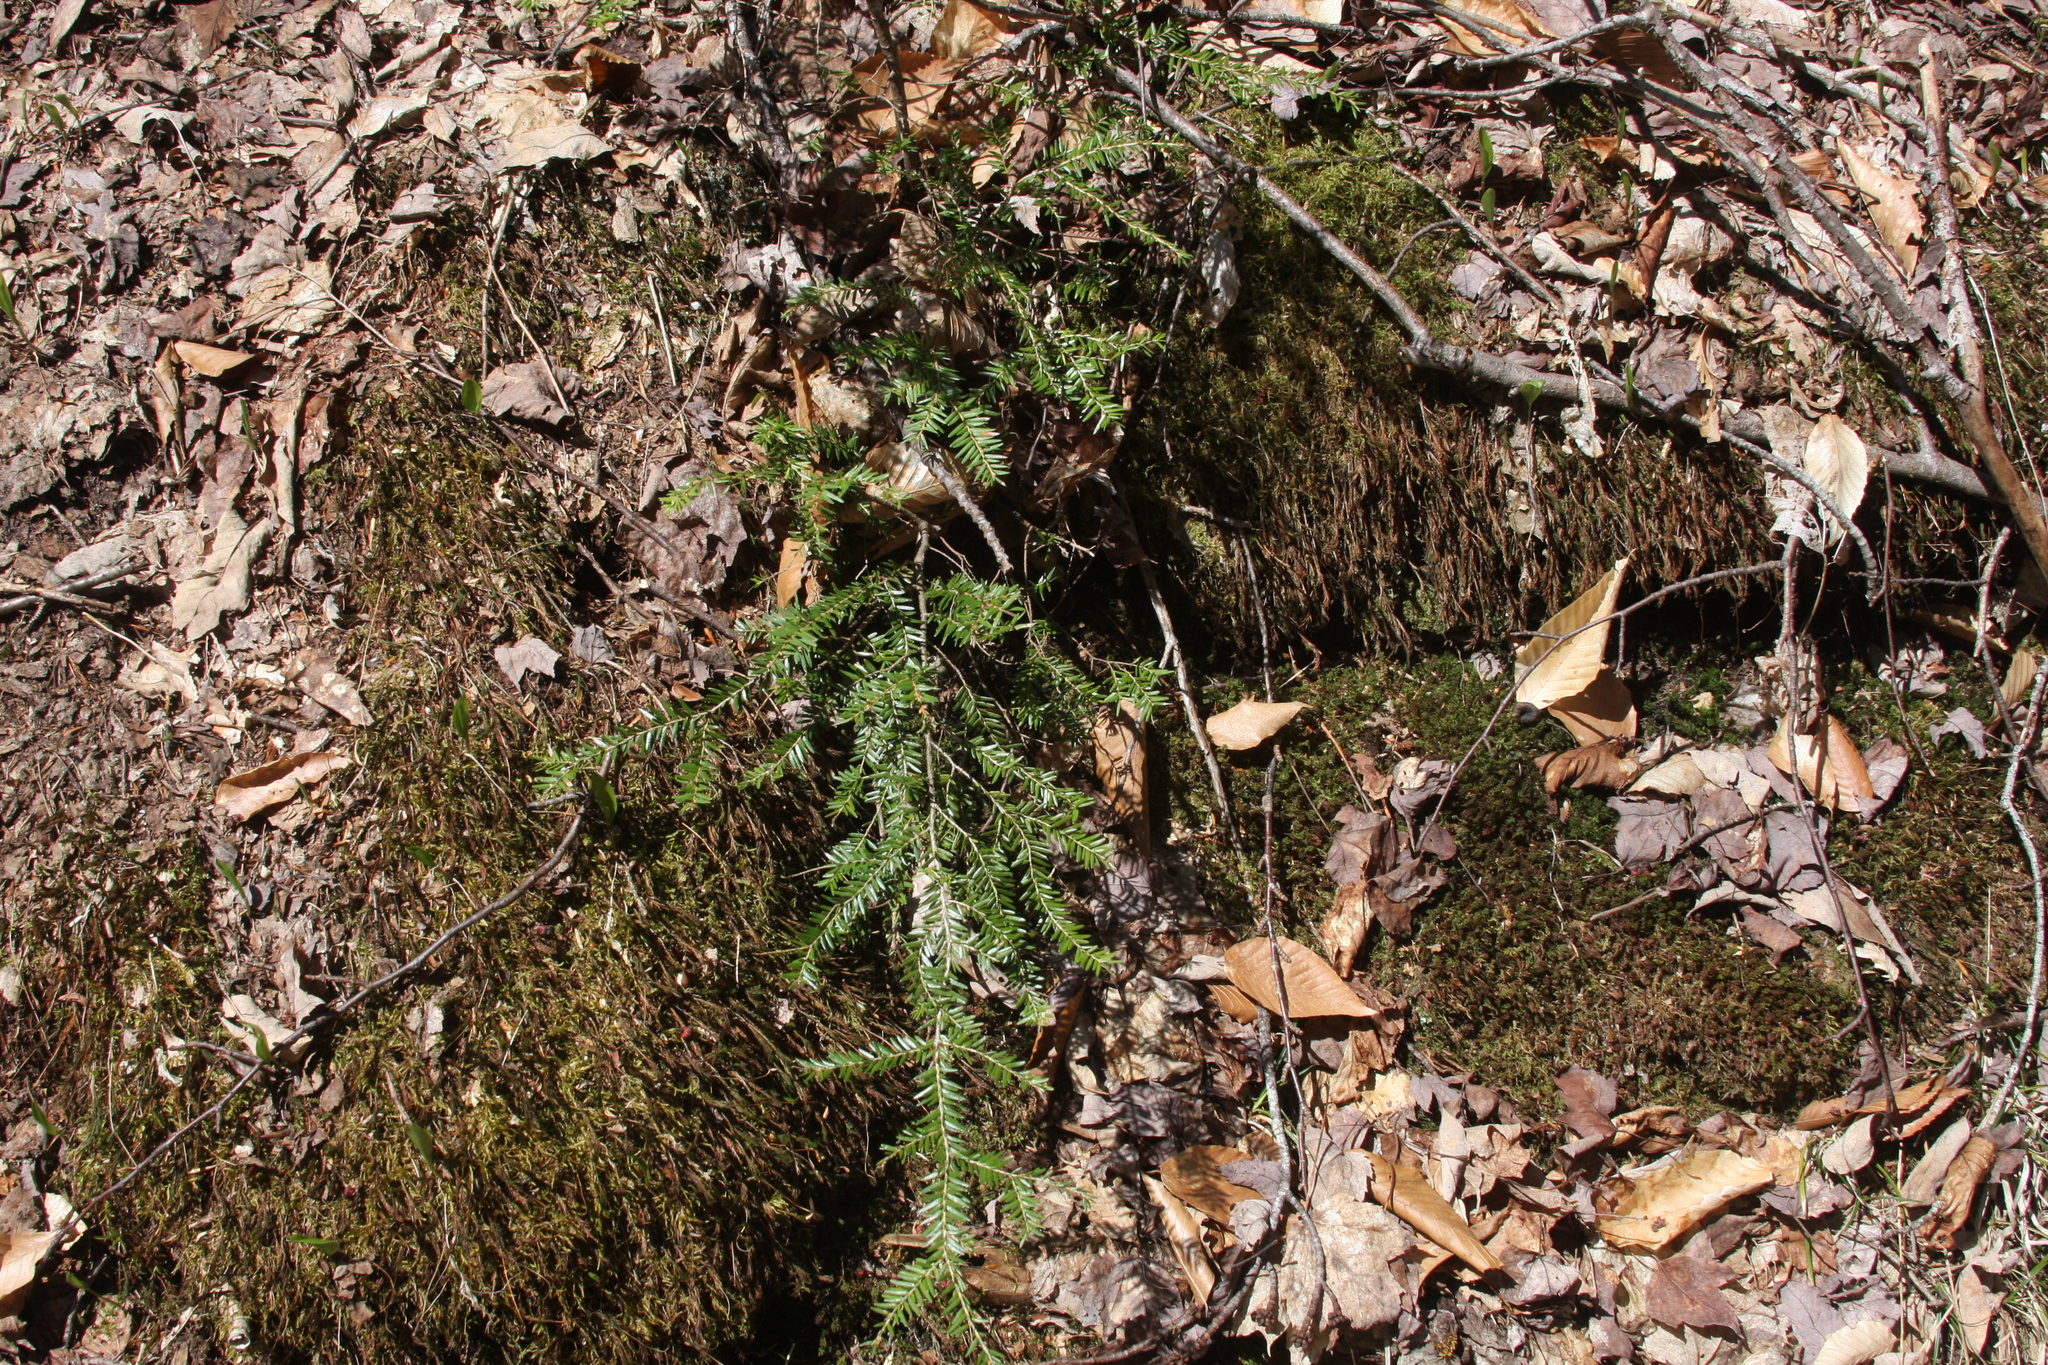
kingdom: Plantae
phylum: Tracheophyta
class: Pinopsida
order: Pinales
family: Pinaceae
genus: Tsuga
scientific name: Tsuga canadensis
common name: Eastern hemlock
